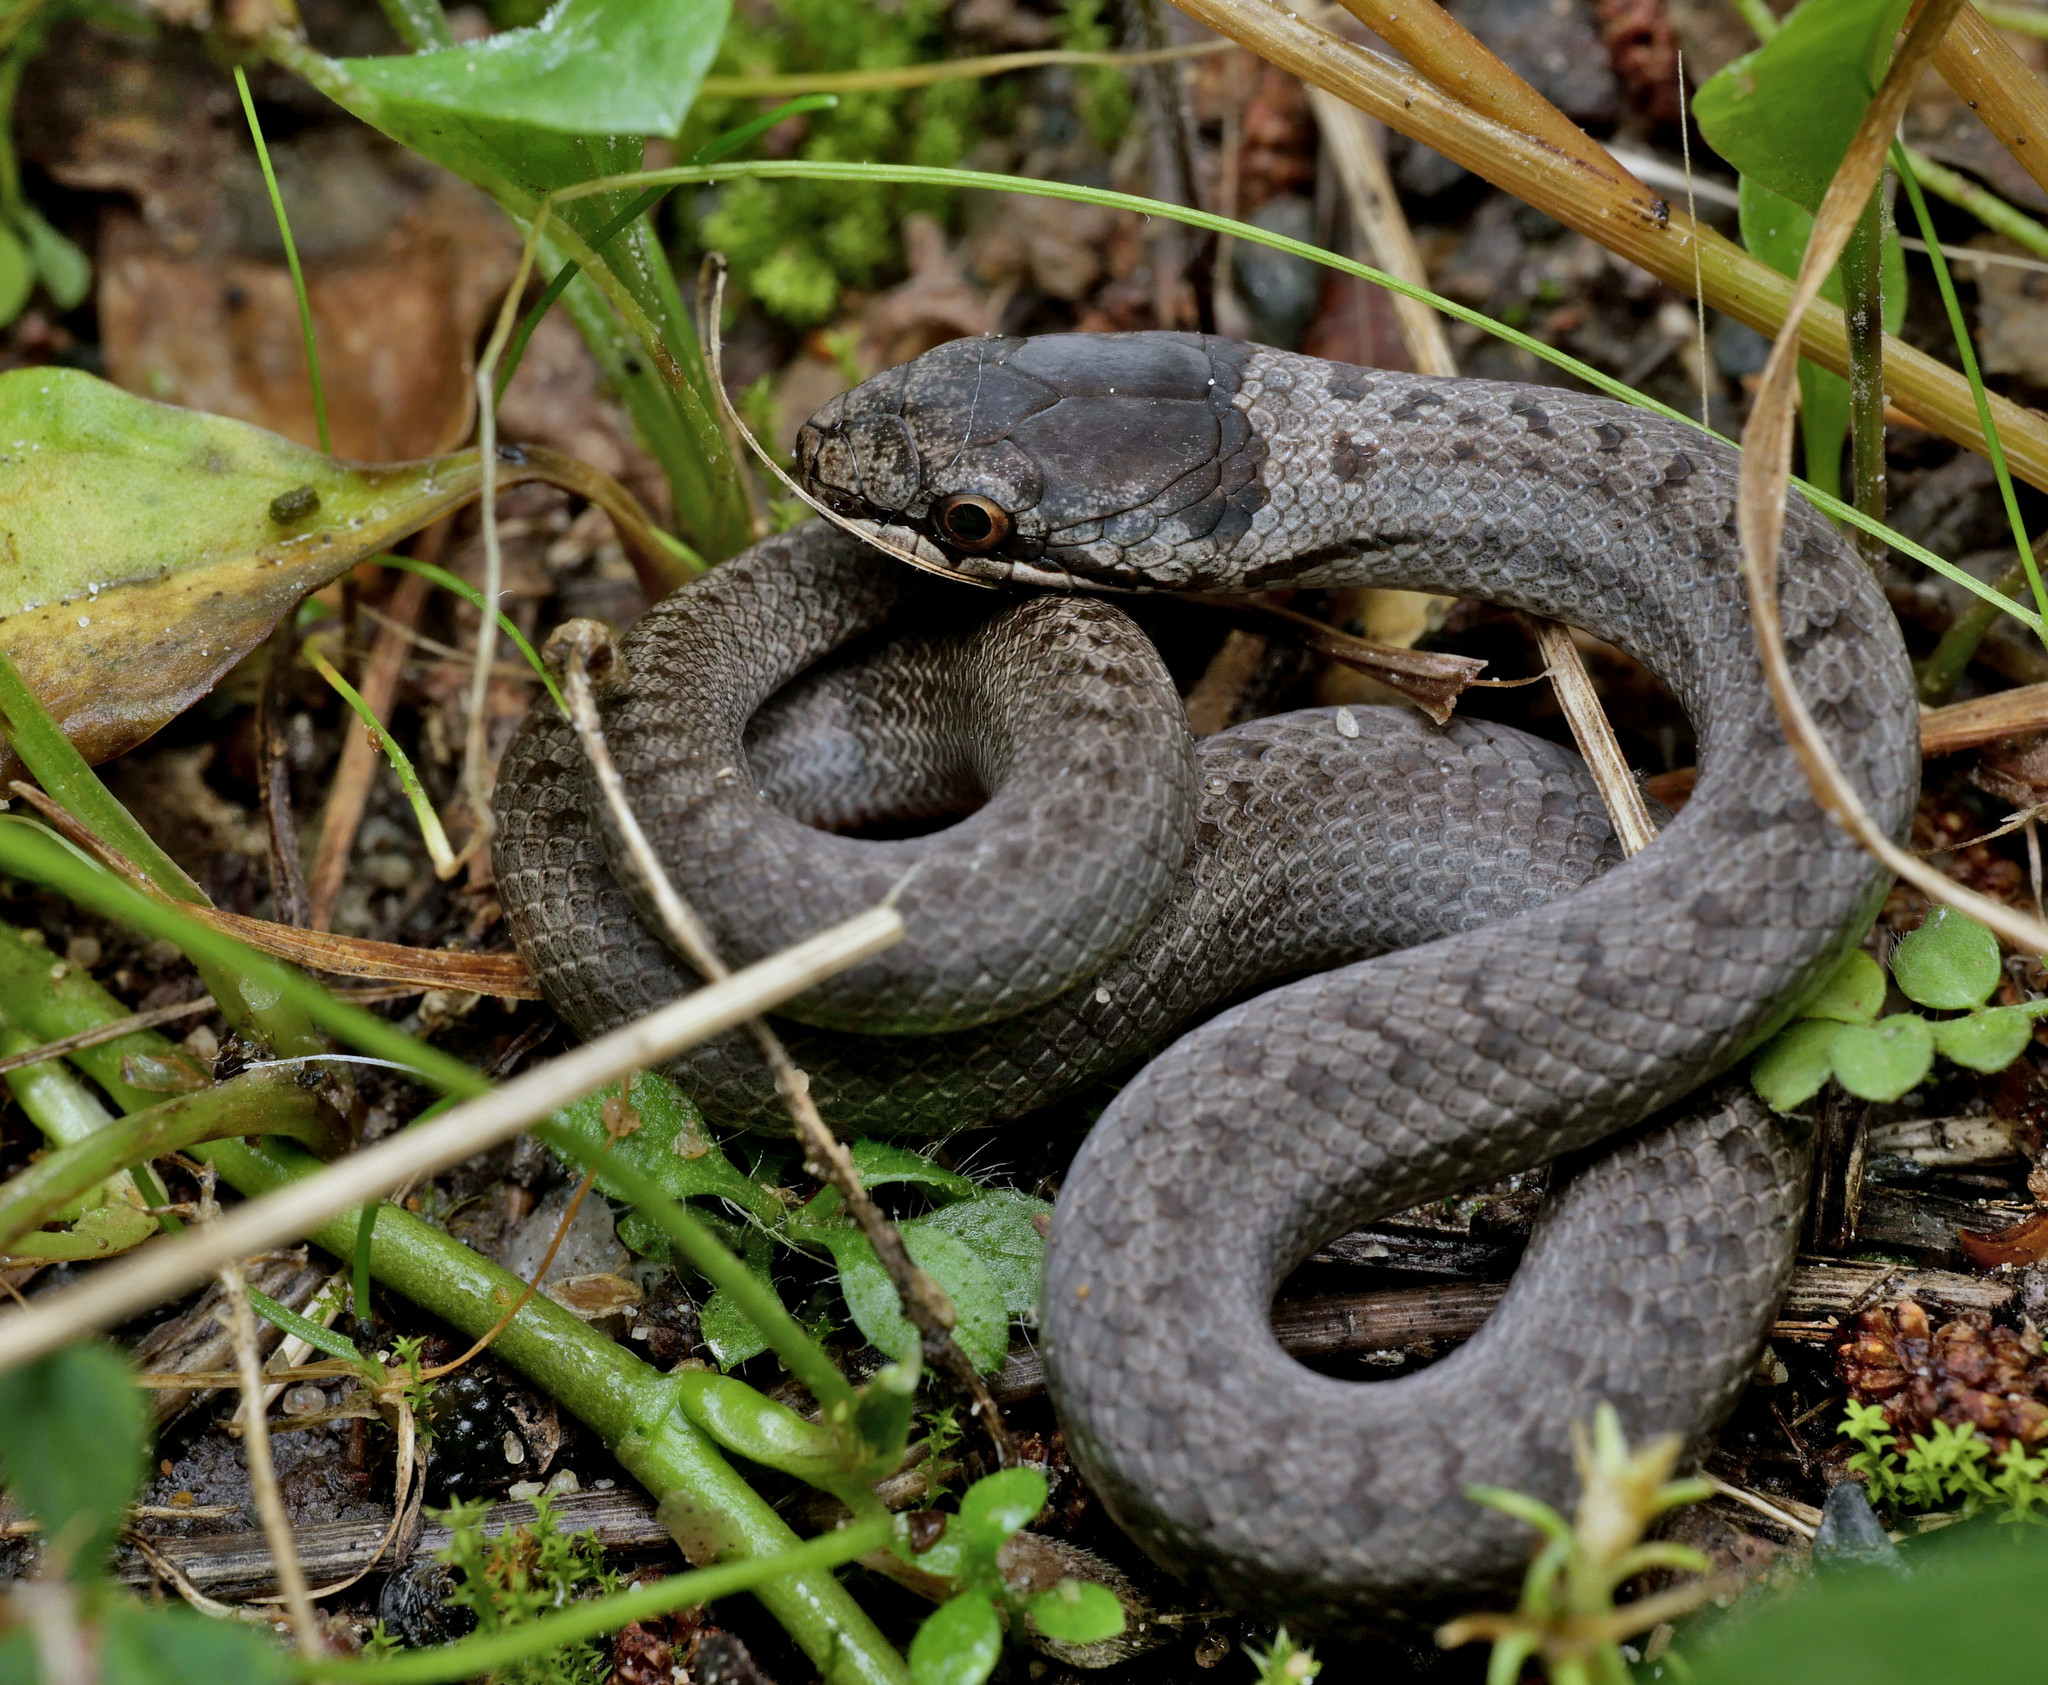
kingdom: Animalia
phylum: Chordata
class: Squamata
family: Colubridae
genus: Coronella
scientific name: Coronella austriaca
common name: Smooth snake
